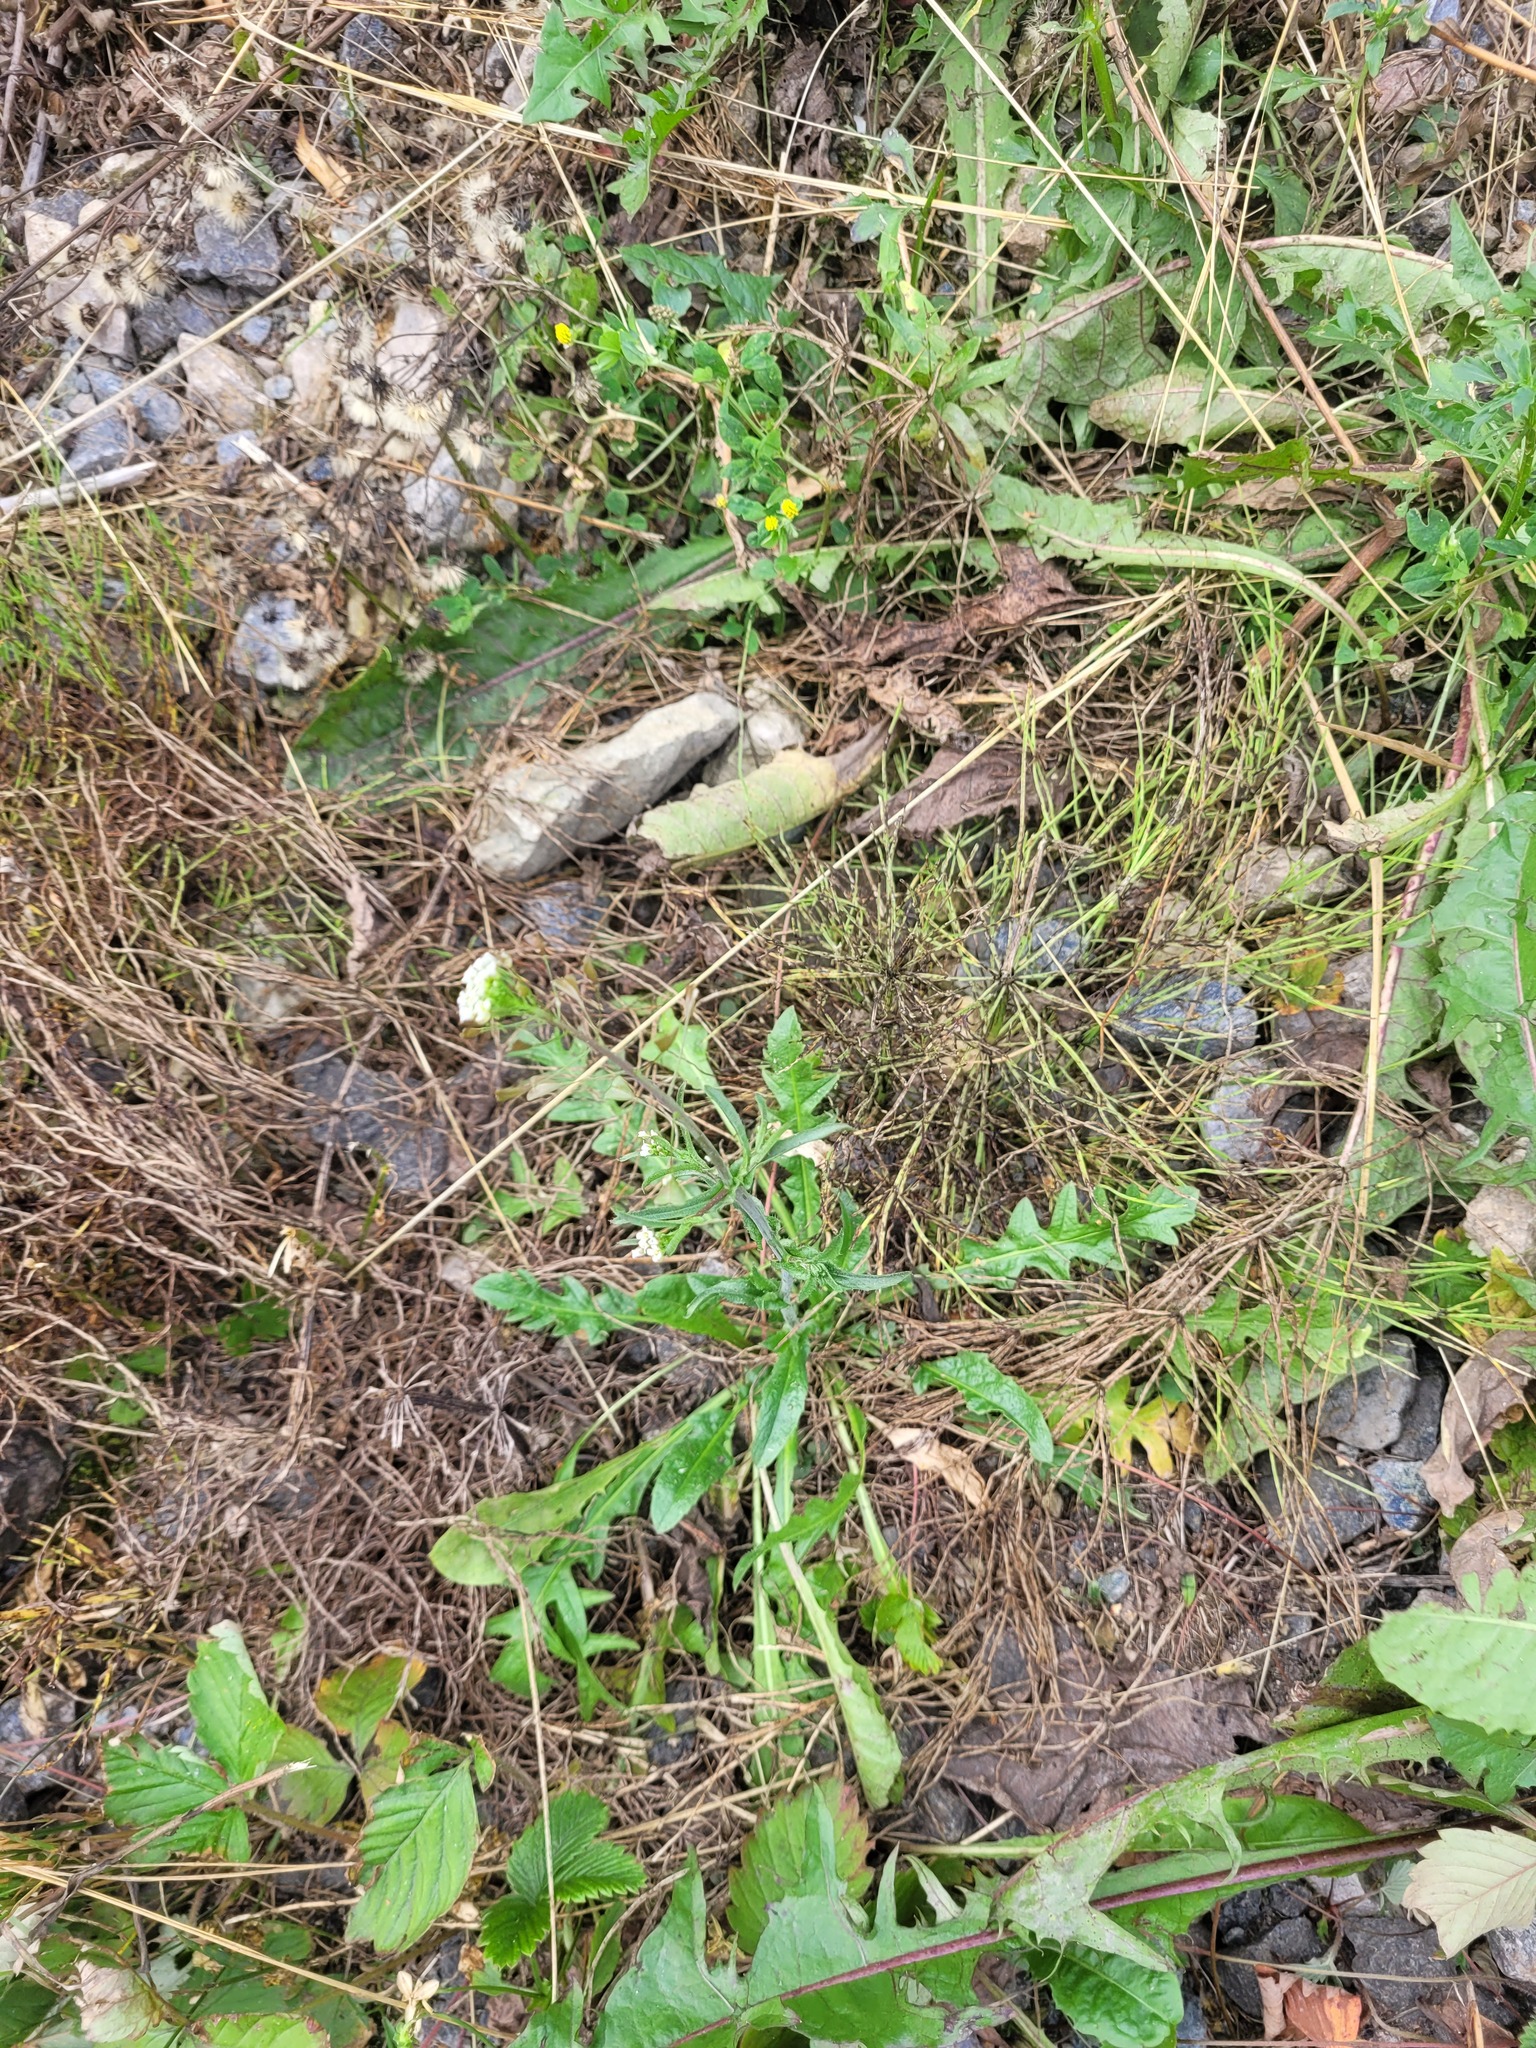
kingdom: Plantae
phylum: Tracheophyta
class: Magnoliopsida
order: Brassicales
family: Brassicaceae
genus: Capsella
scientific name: Capsella bursa-pastoris
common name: Shepherd's purse
